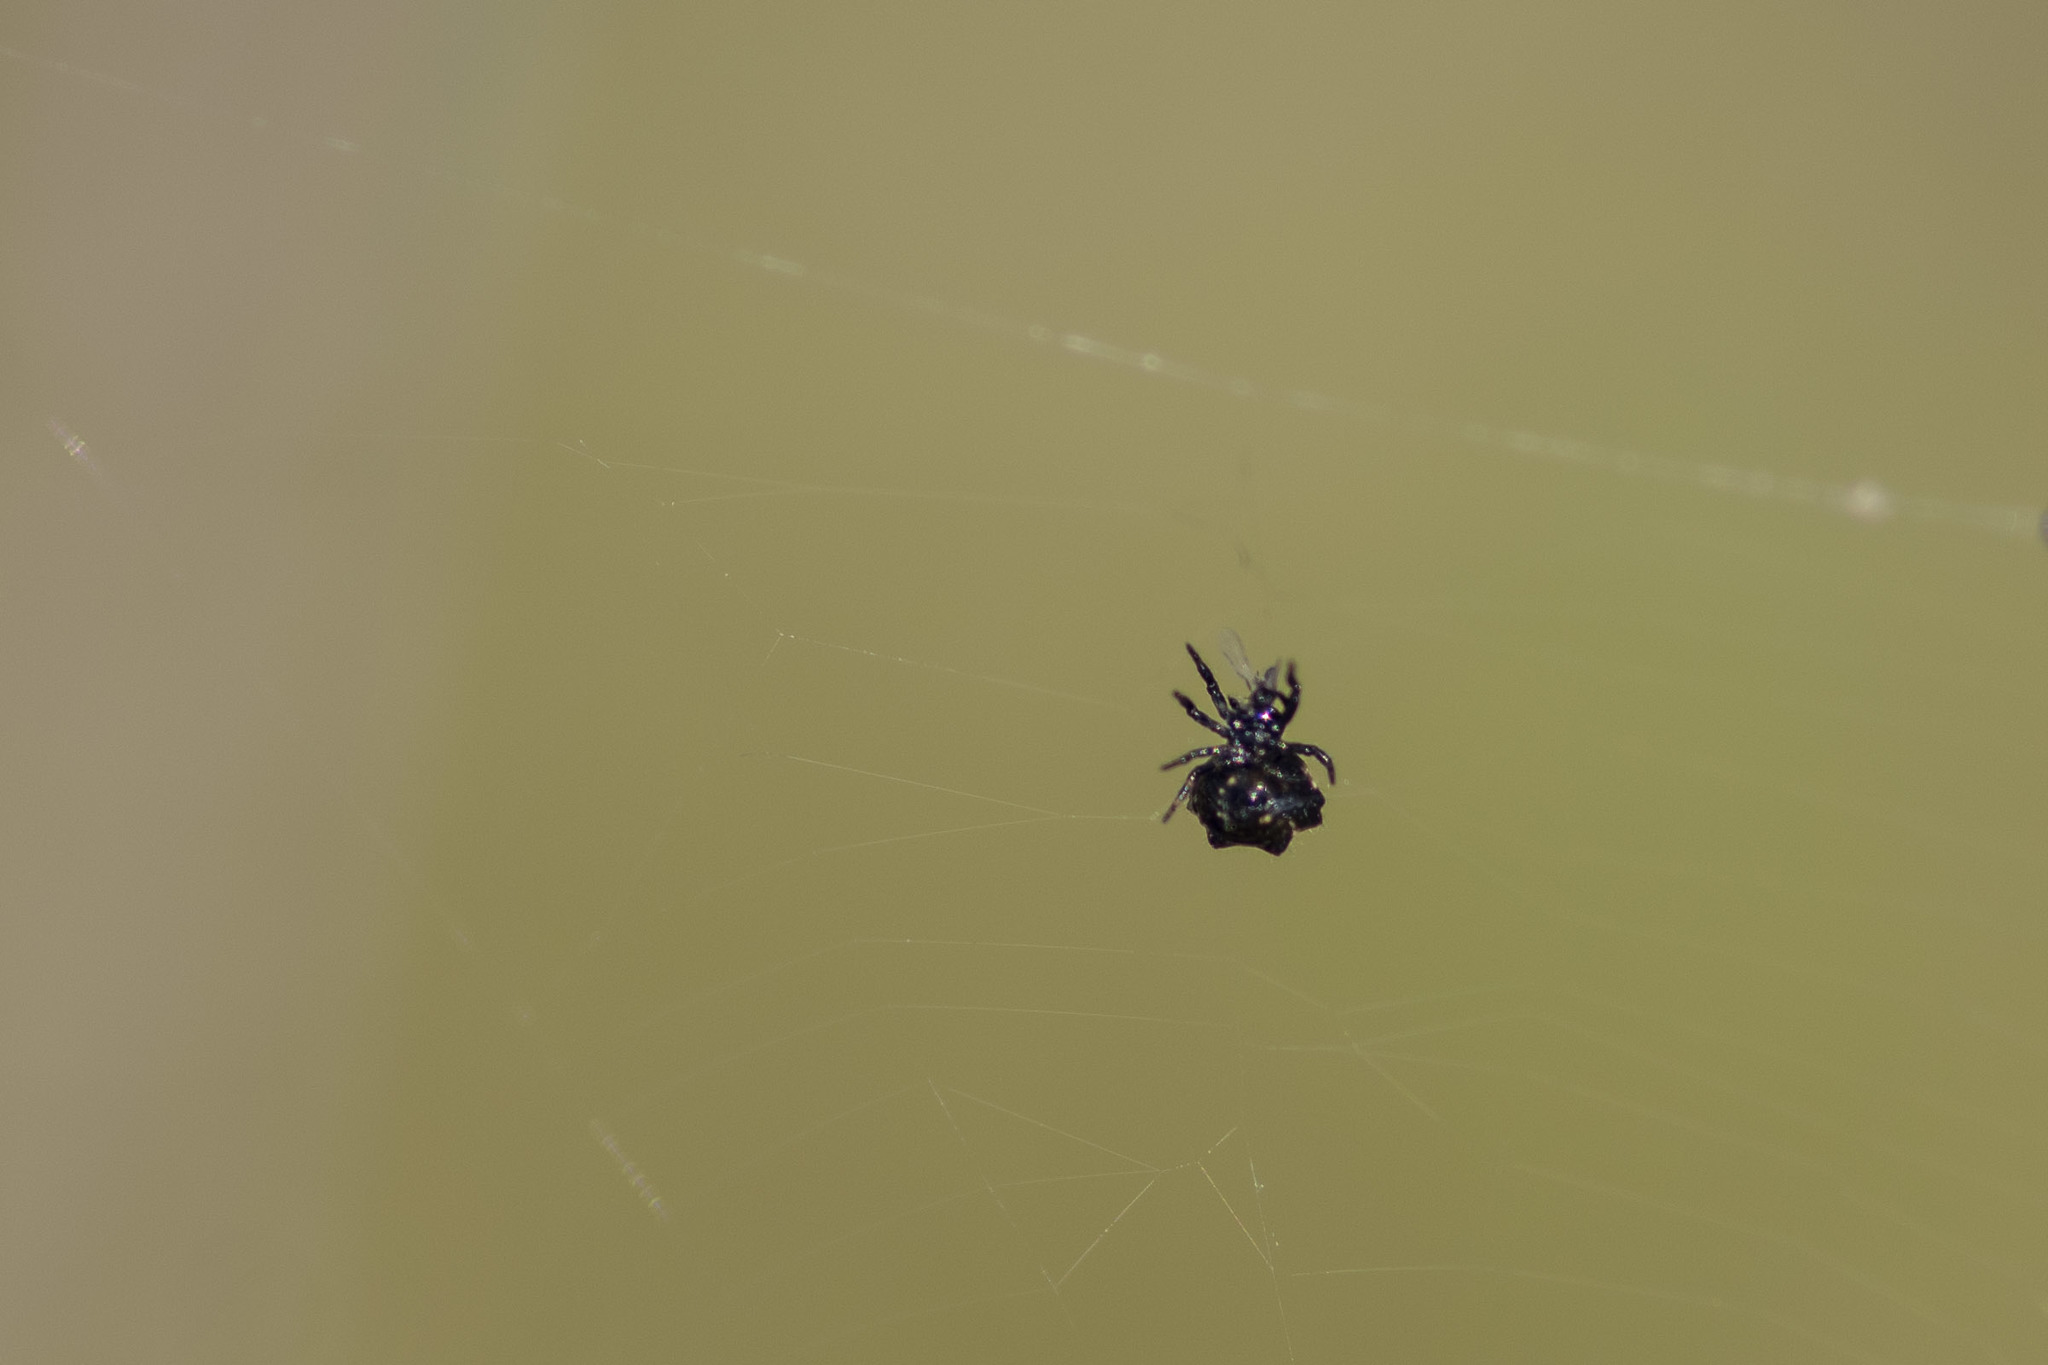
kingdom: Animalia
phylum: Arthropoda
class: Arachnida
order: Araneae
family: Araneidae
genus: Austracantha
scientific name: Austracantha minax
